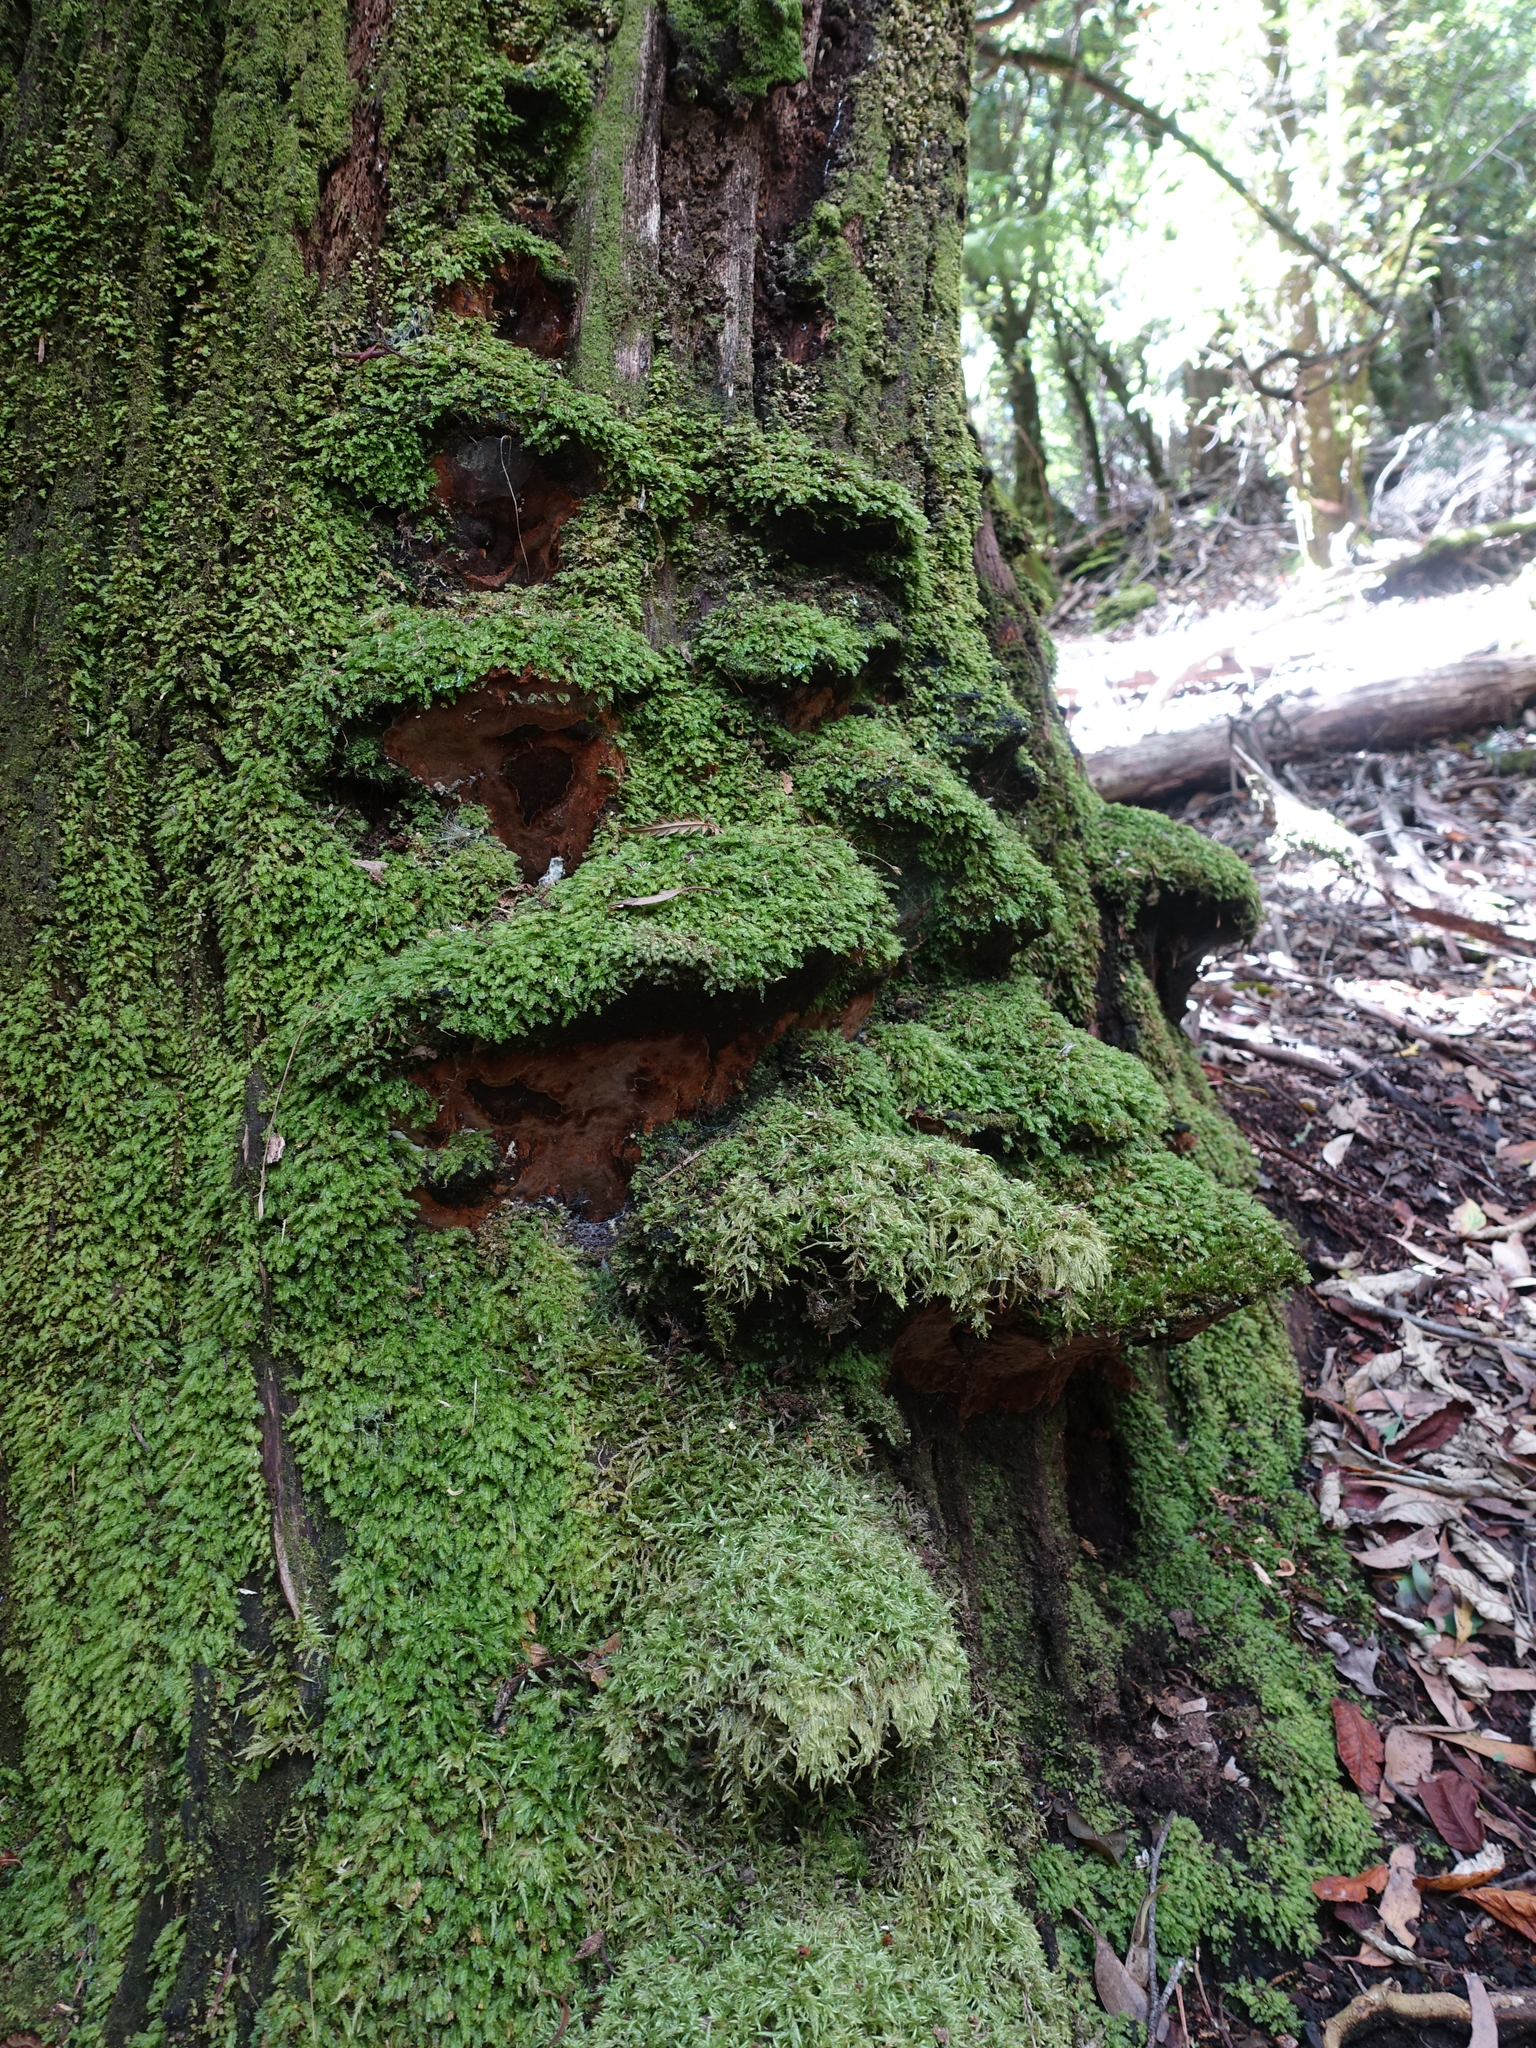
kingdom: Fungi
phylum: Basidiomycota
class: Agaricomycetes
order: Hymenochaetales
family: Hymenochaetaceae
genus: Fuscoporia
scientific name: Fuscoporia wahlbergii
